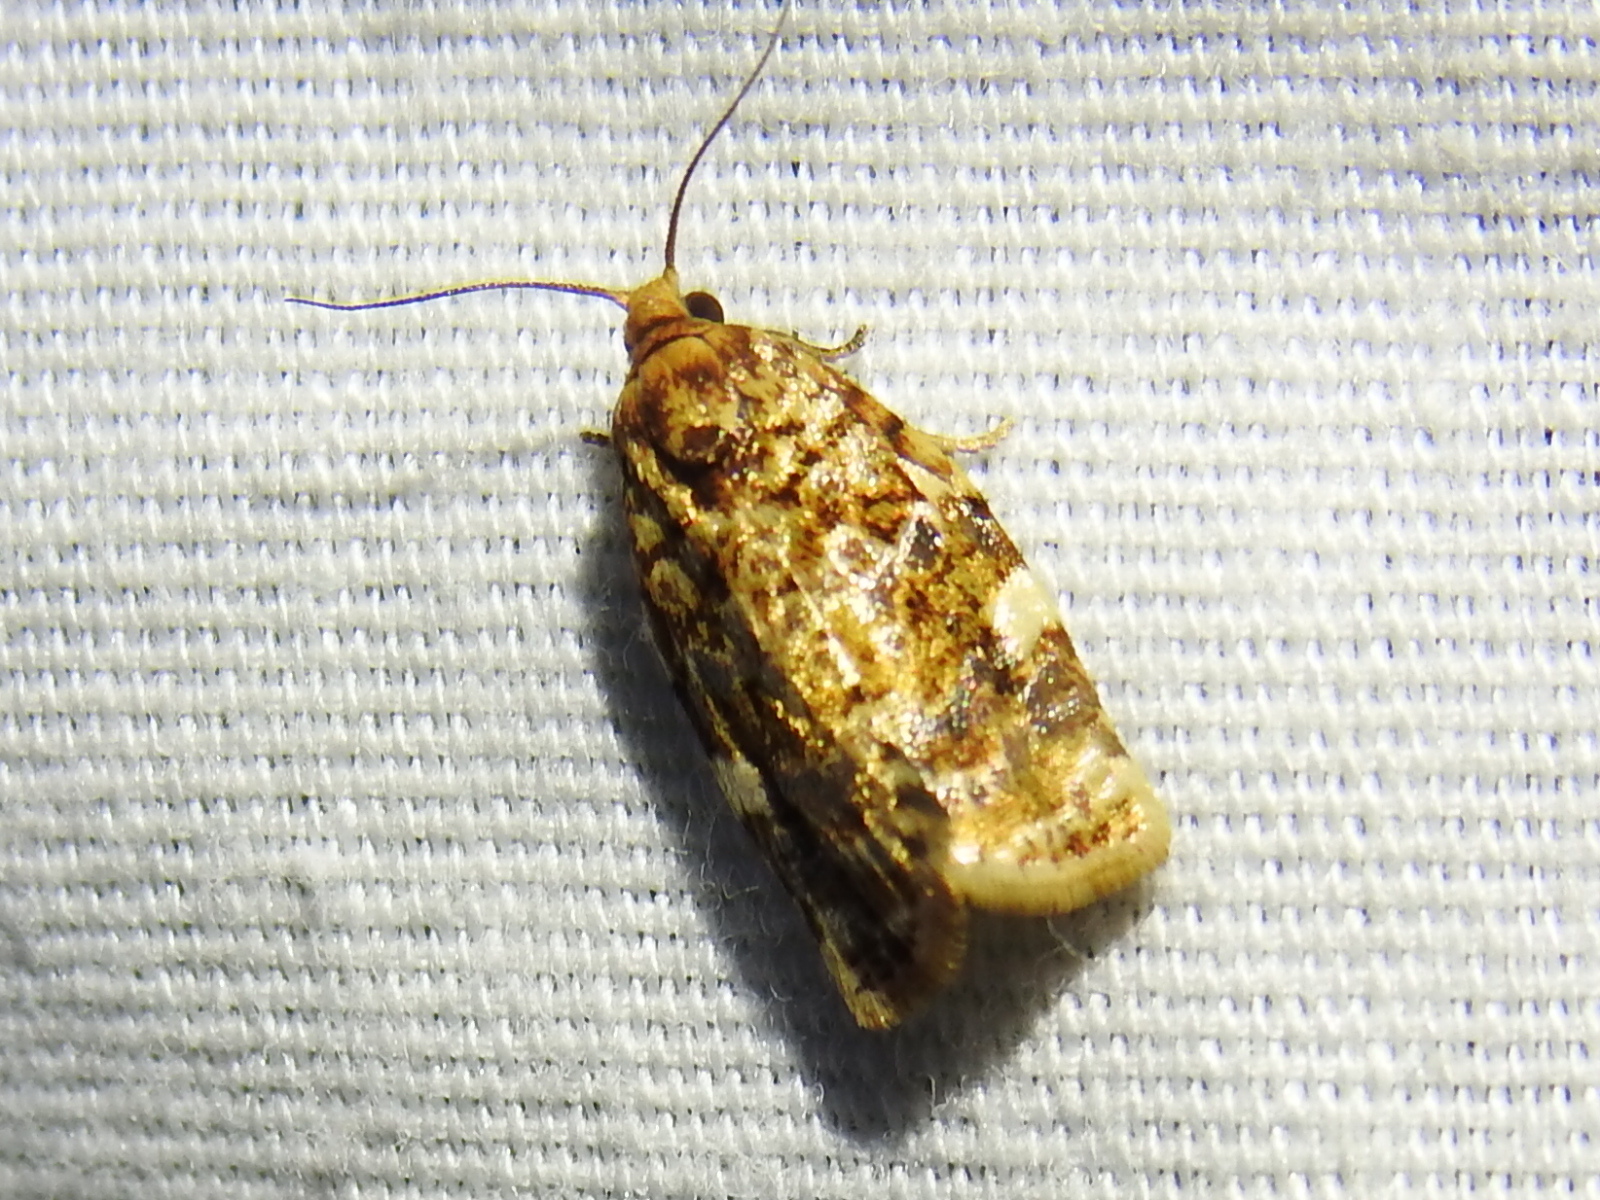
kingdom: Animalia
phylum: Arthropoda
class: Insecta
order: Lepidoptera
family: Tortricidae
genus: Archips
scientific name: Archips argyrospila
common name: Fruit-tree leafroller moth
